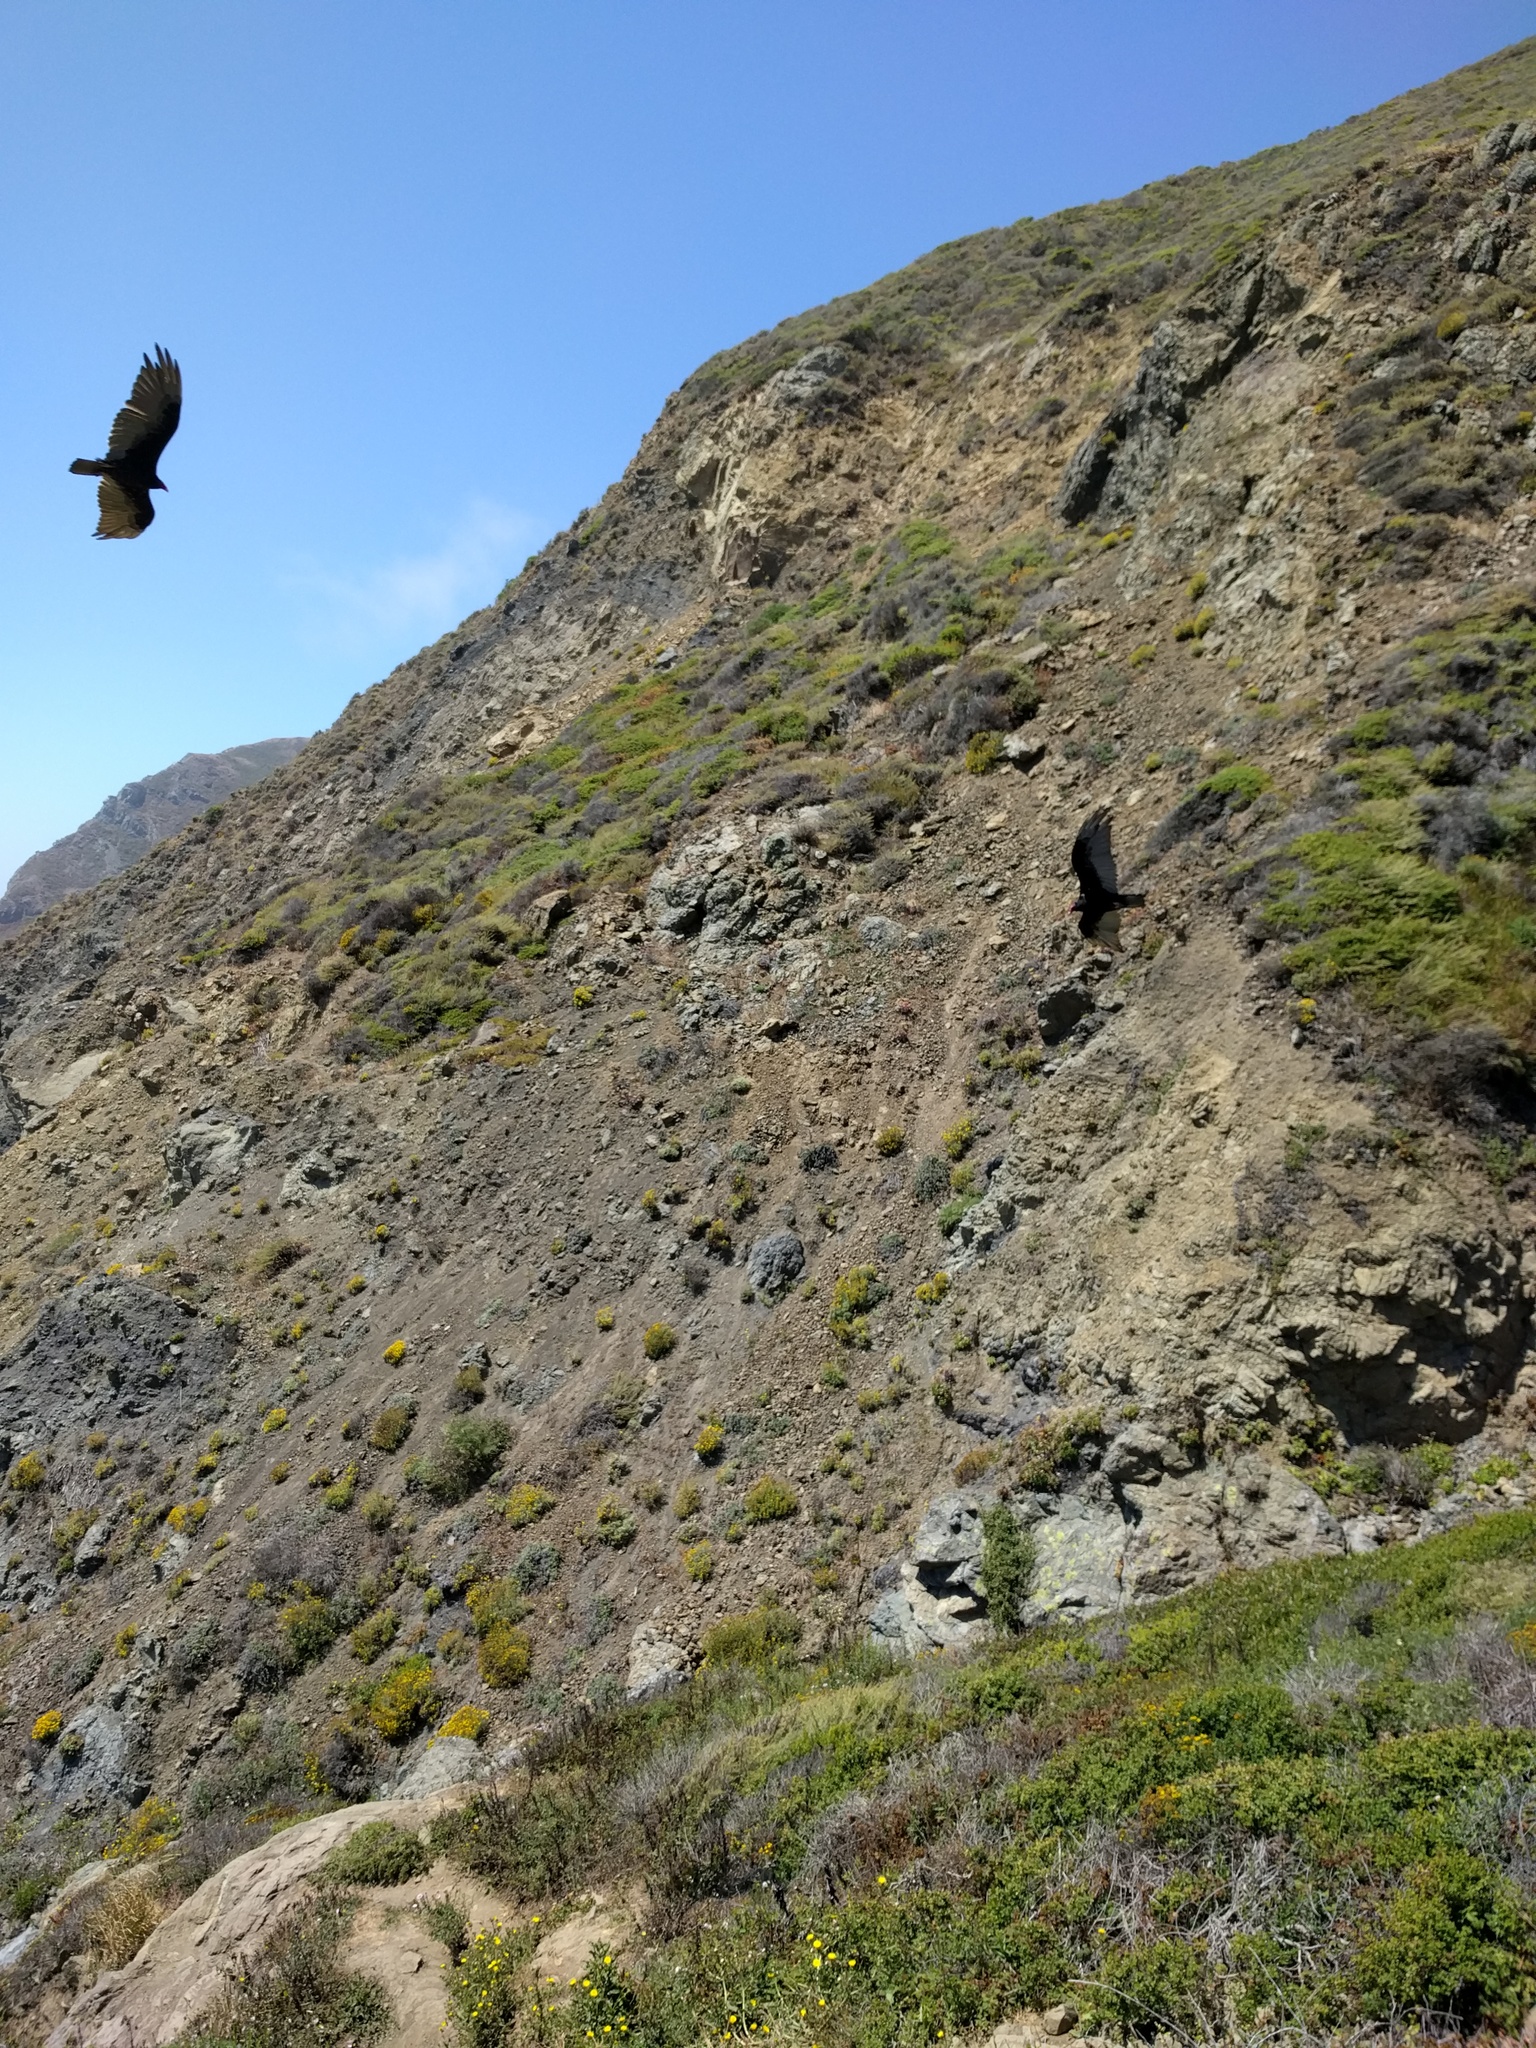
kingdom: Animalia
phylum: Chordata
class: Aves
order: Accipitriformes
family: Cathartidae
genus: Cathartes
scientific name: Cathartes aura
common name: Turkey vulture
